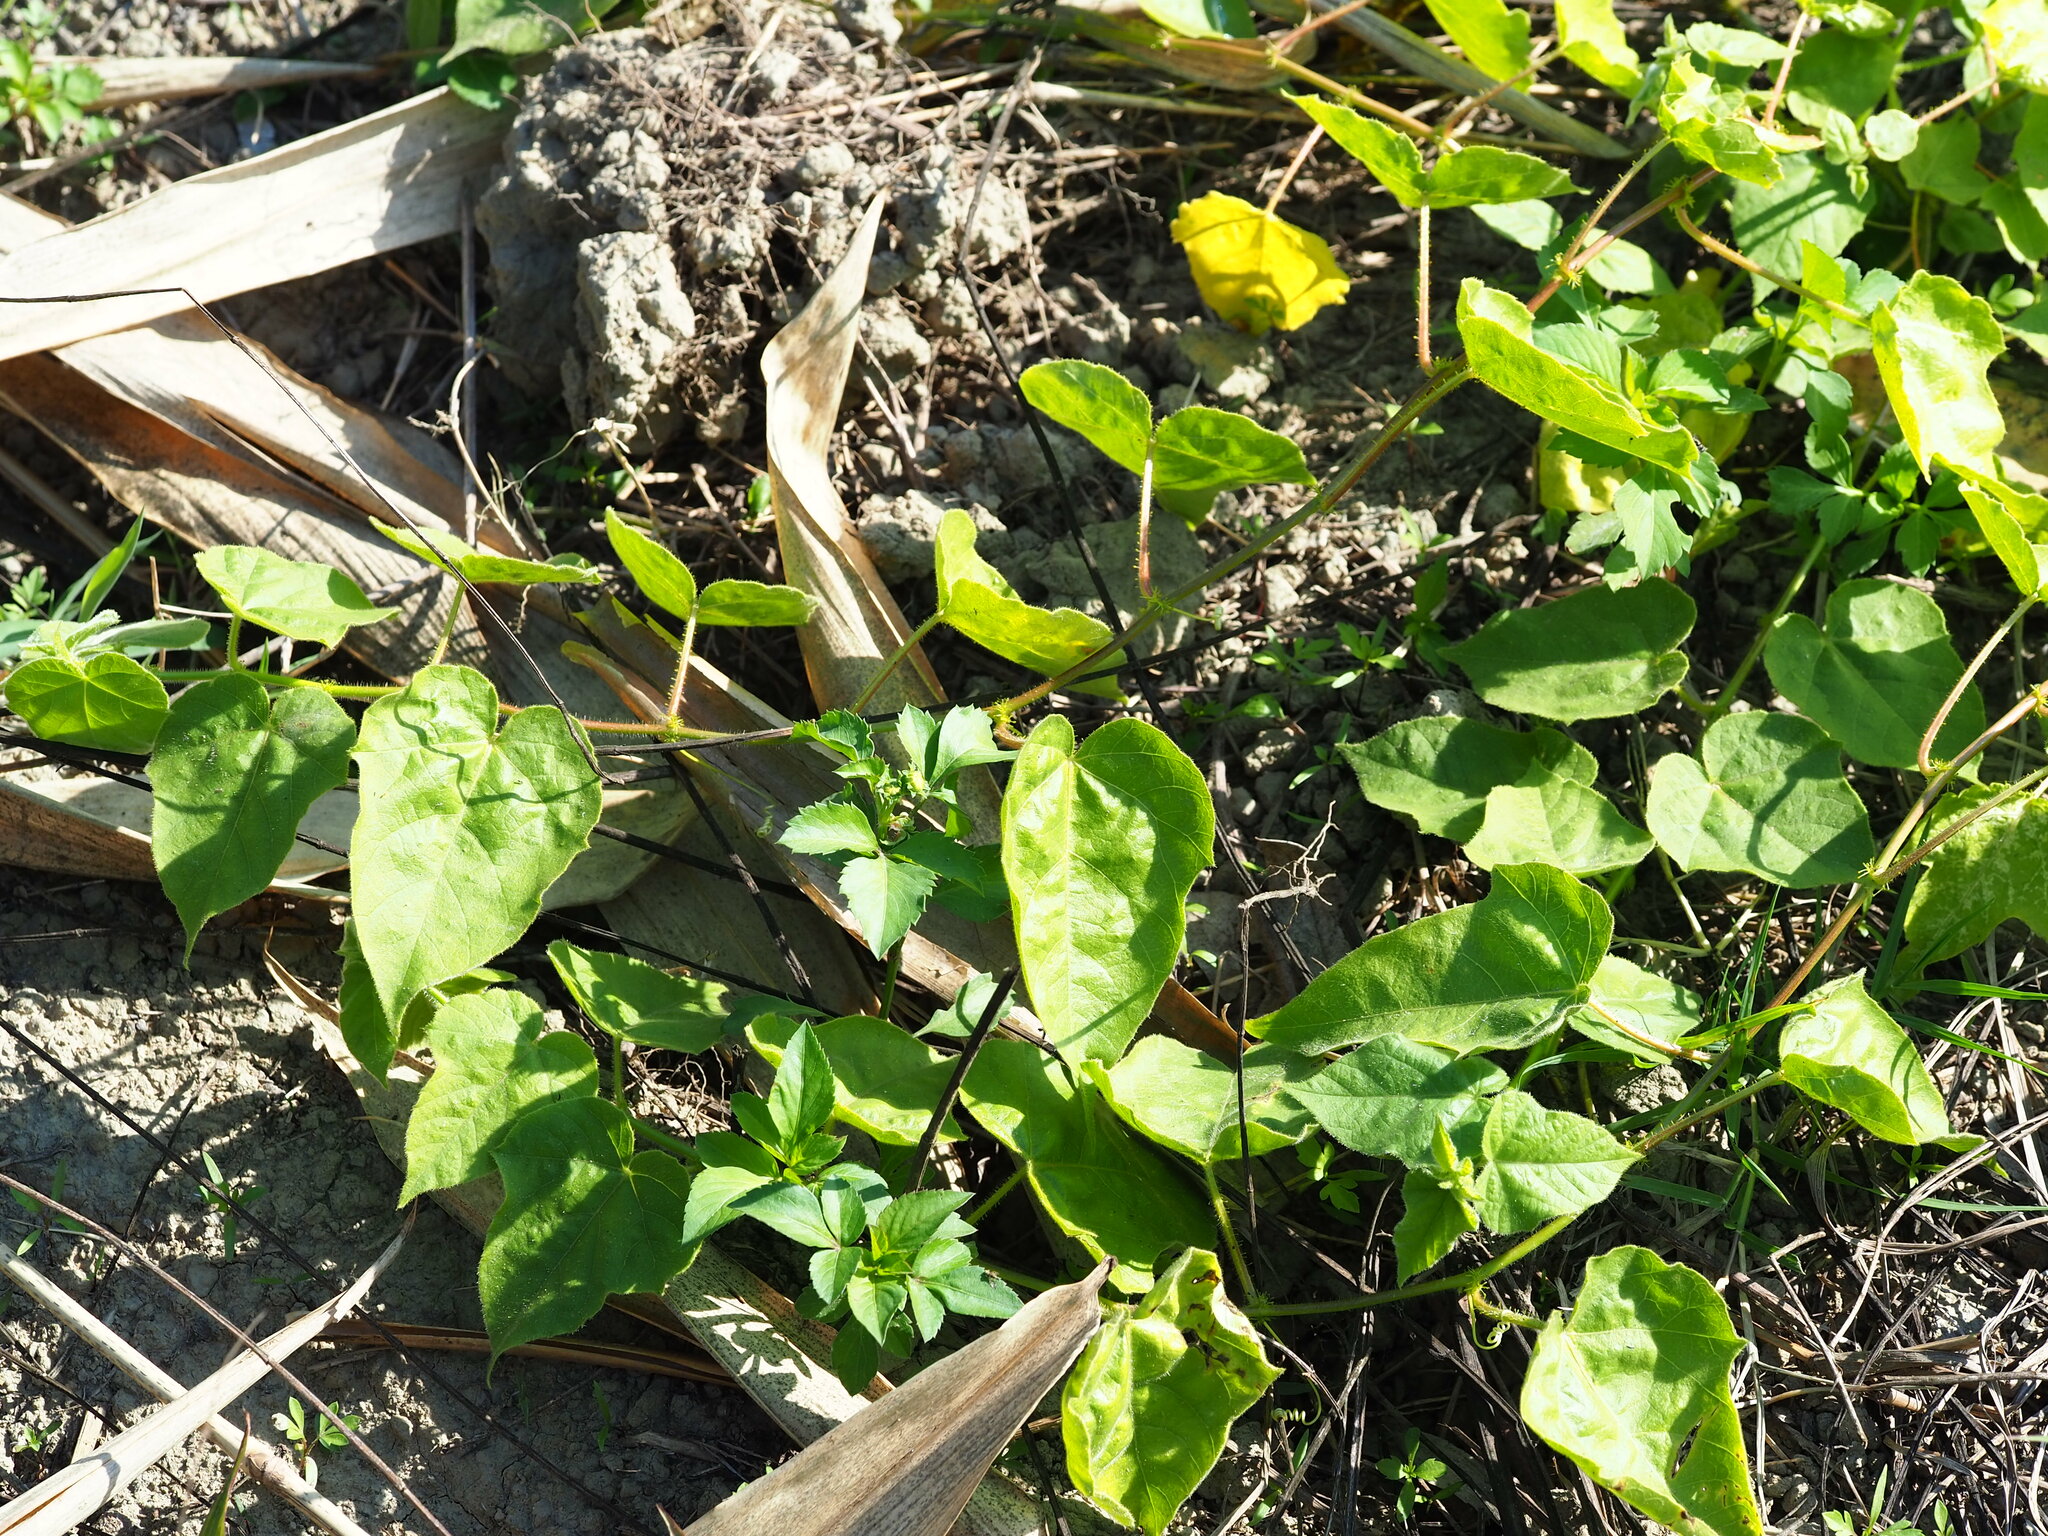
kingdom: Plantae
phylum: Tracheophyta
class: Magnoliopsida
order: Malpighiales
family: Passifloraceae
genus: Passiflora
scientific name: Passiflora vesicaria
